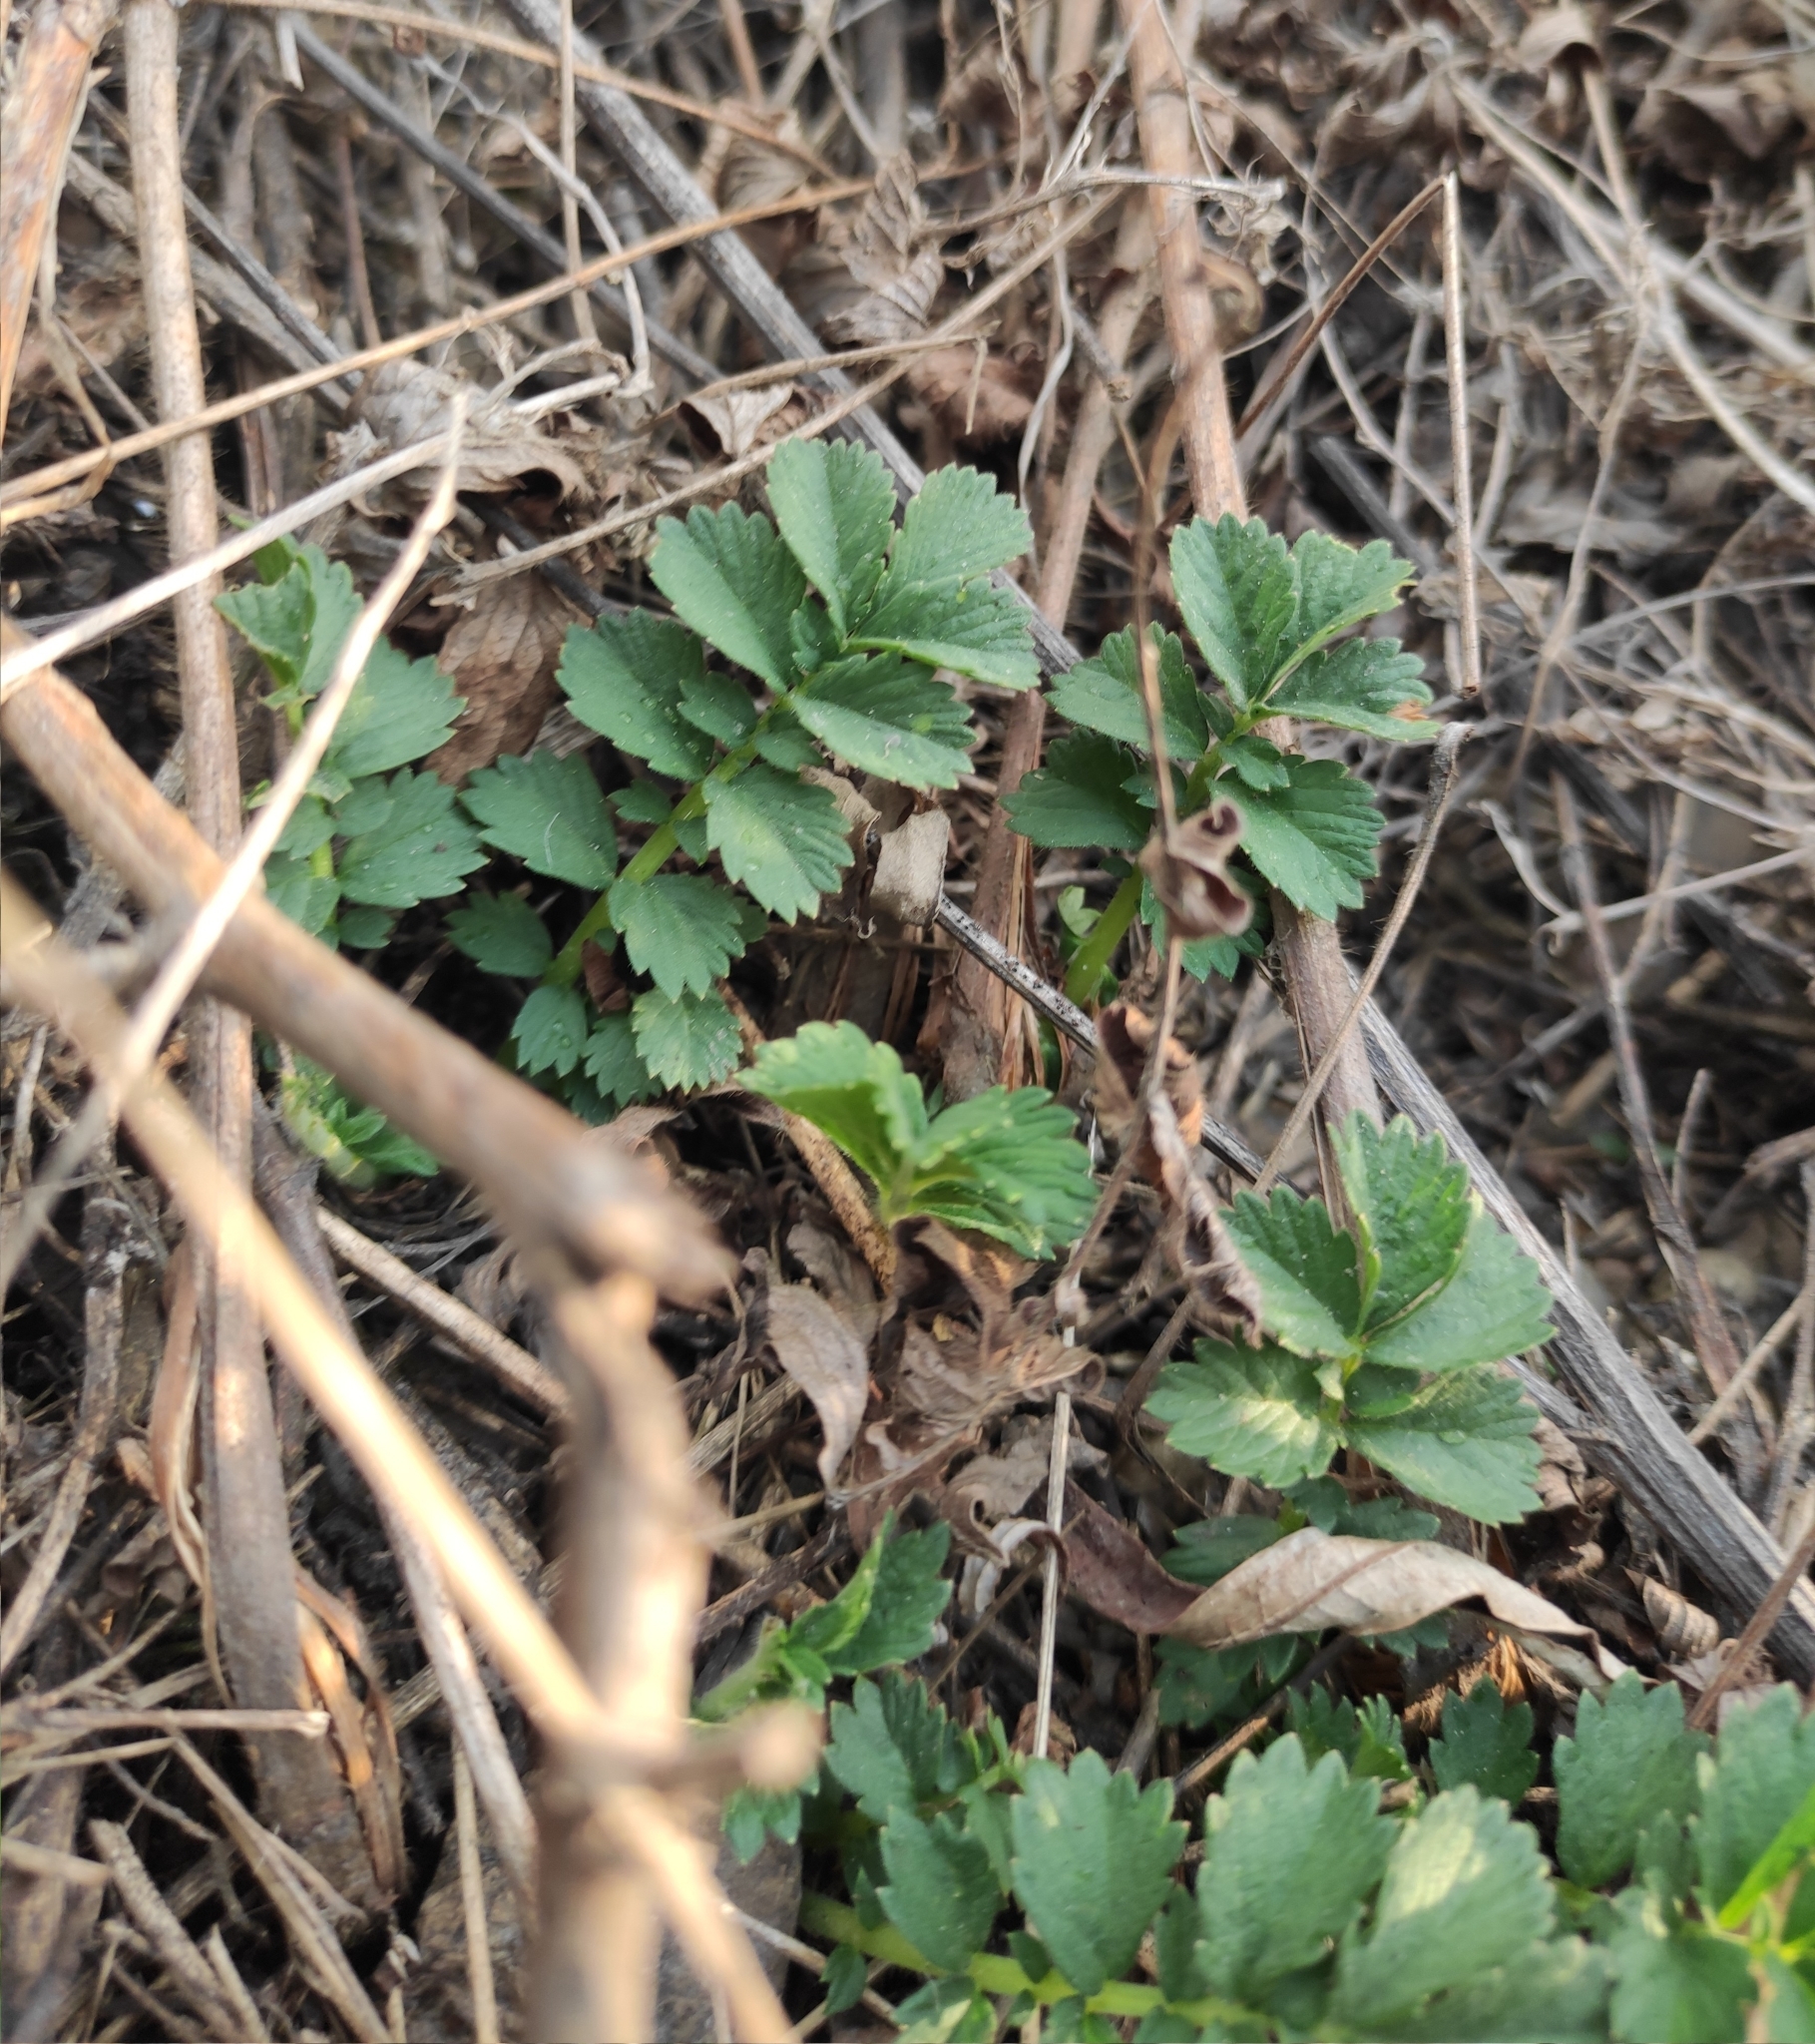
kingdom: Plantae
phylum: Tracheophyta
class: Magnoliopsida
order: Rosales
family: Rosaceae
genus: Agrimonia
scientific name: Agrimonia pilosa
